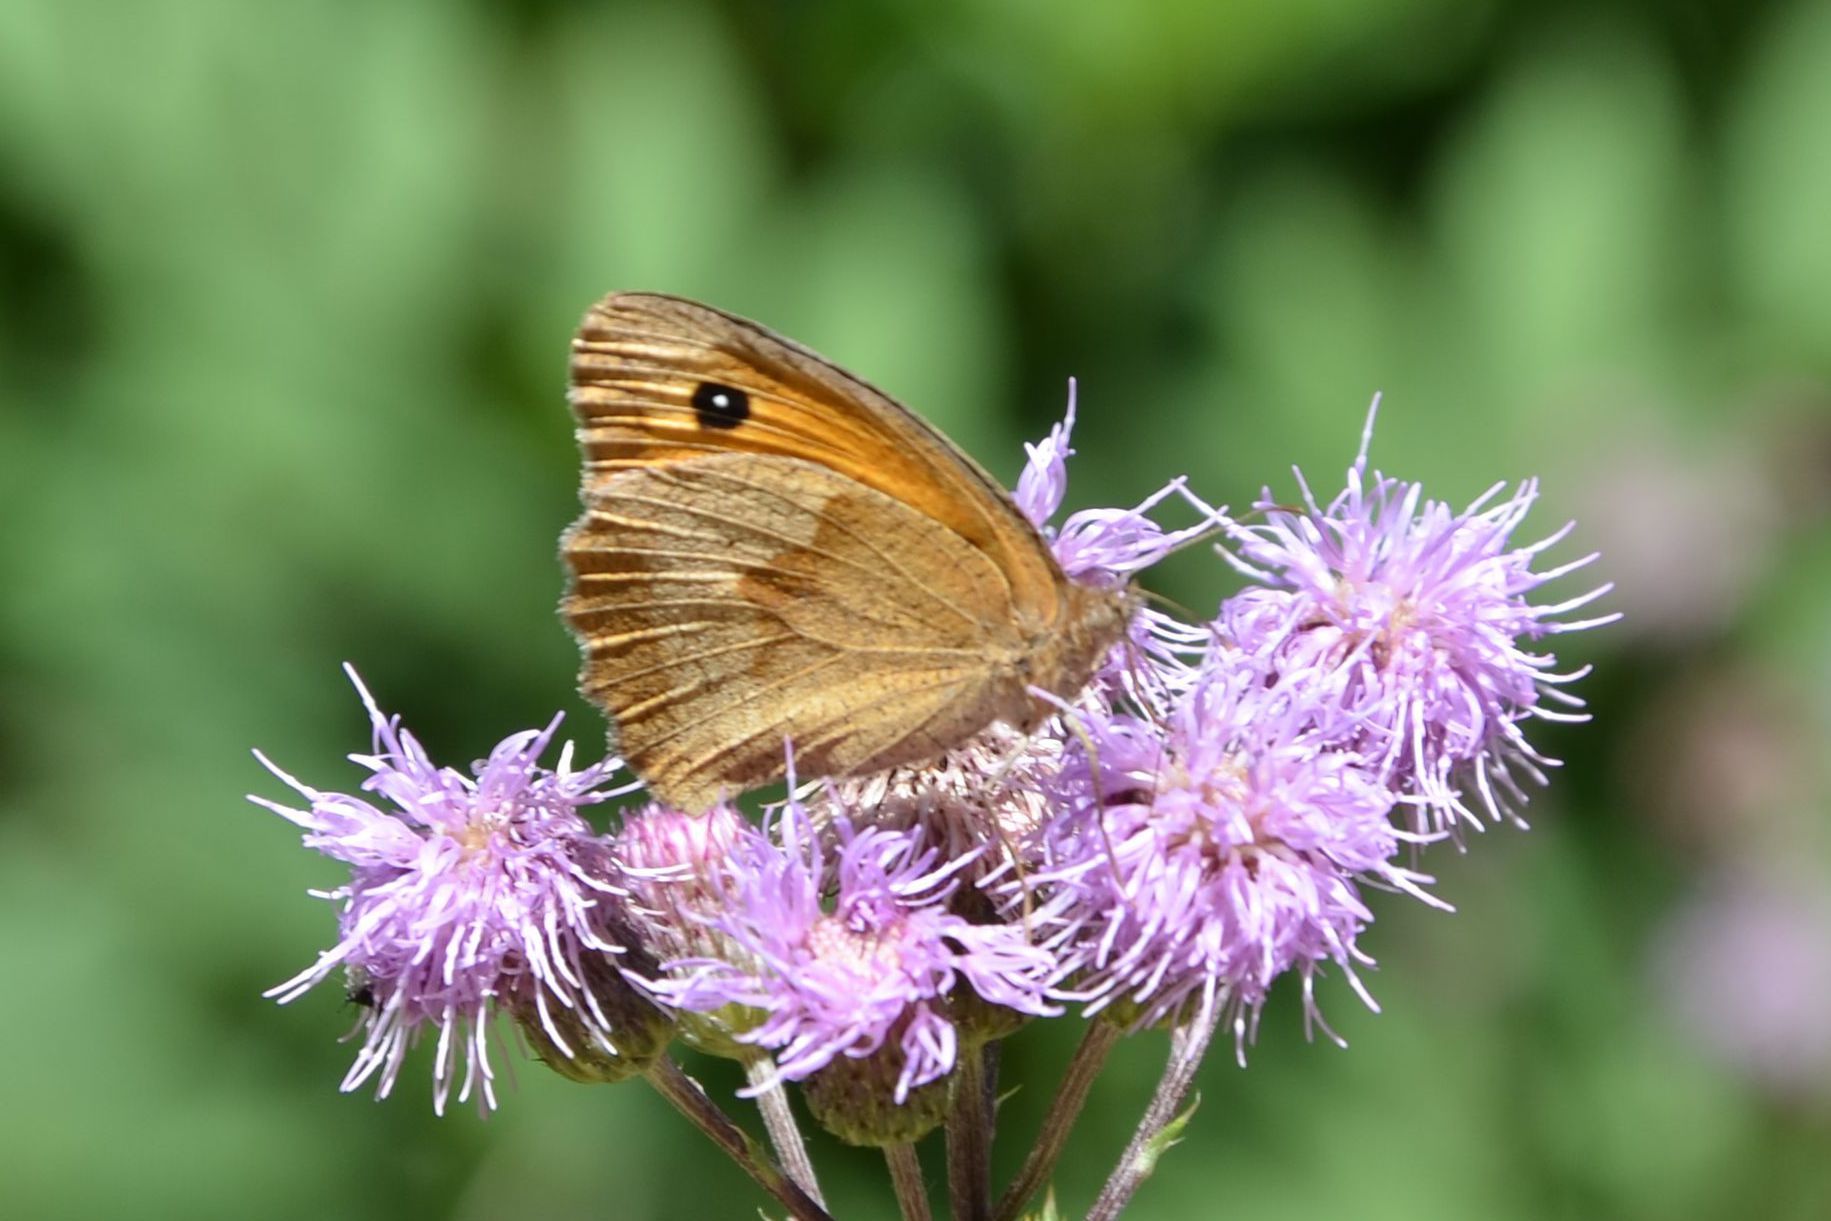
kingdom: Animalia
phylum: Arthropoda
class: Insecta
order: Lepidoptera
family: Nymphalidae
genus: Maniola
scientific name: Maniola jurtina
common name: Meadow brown
